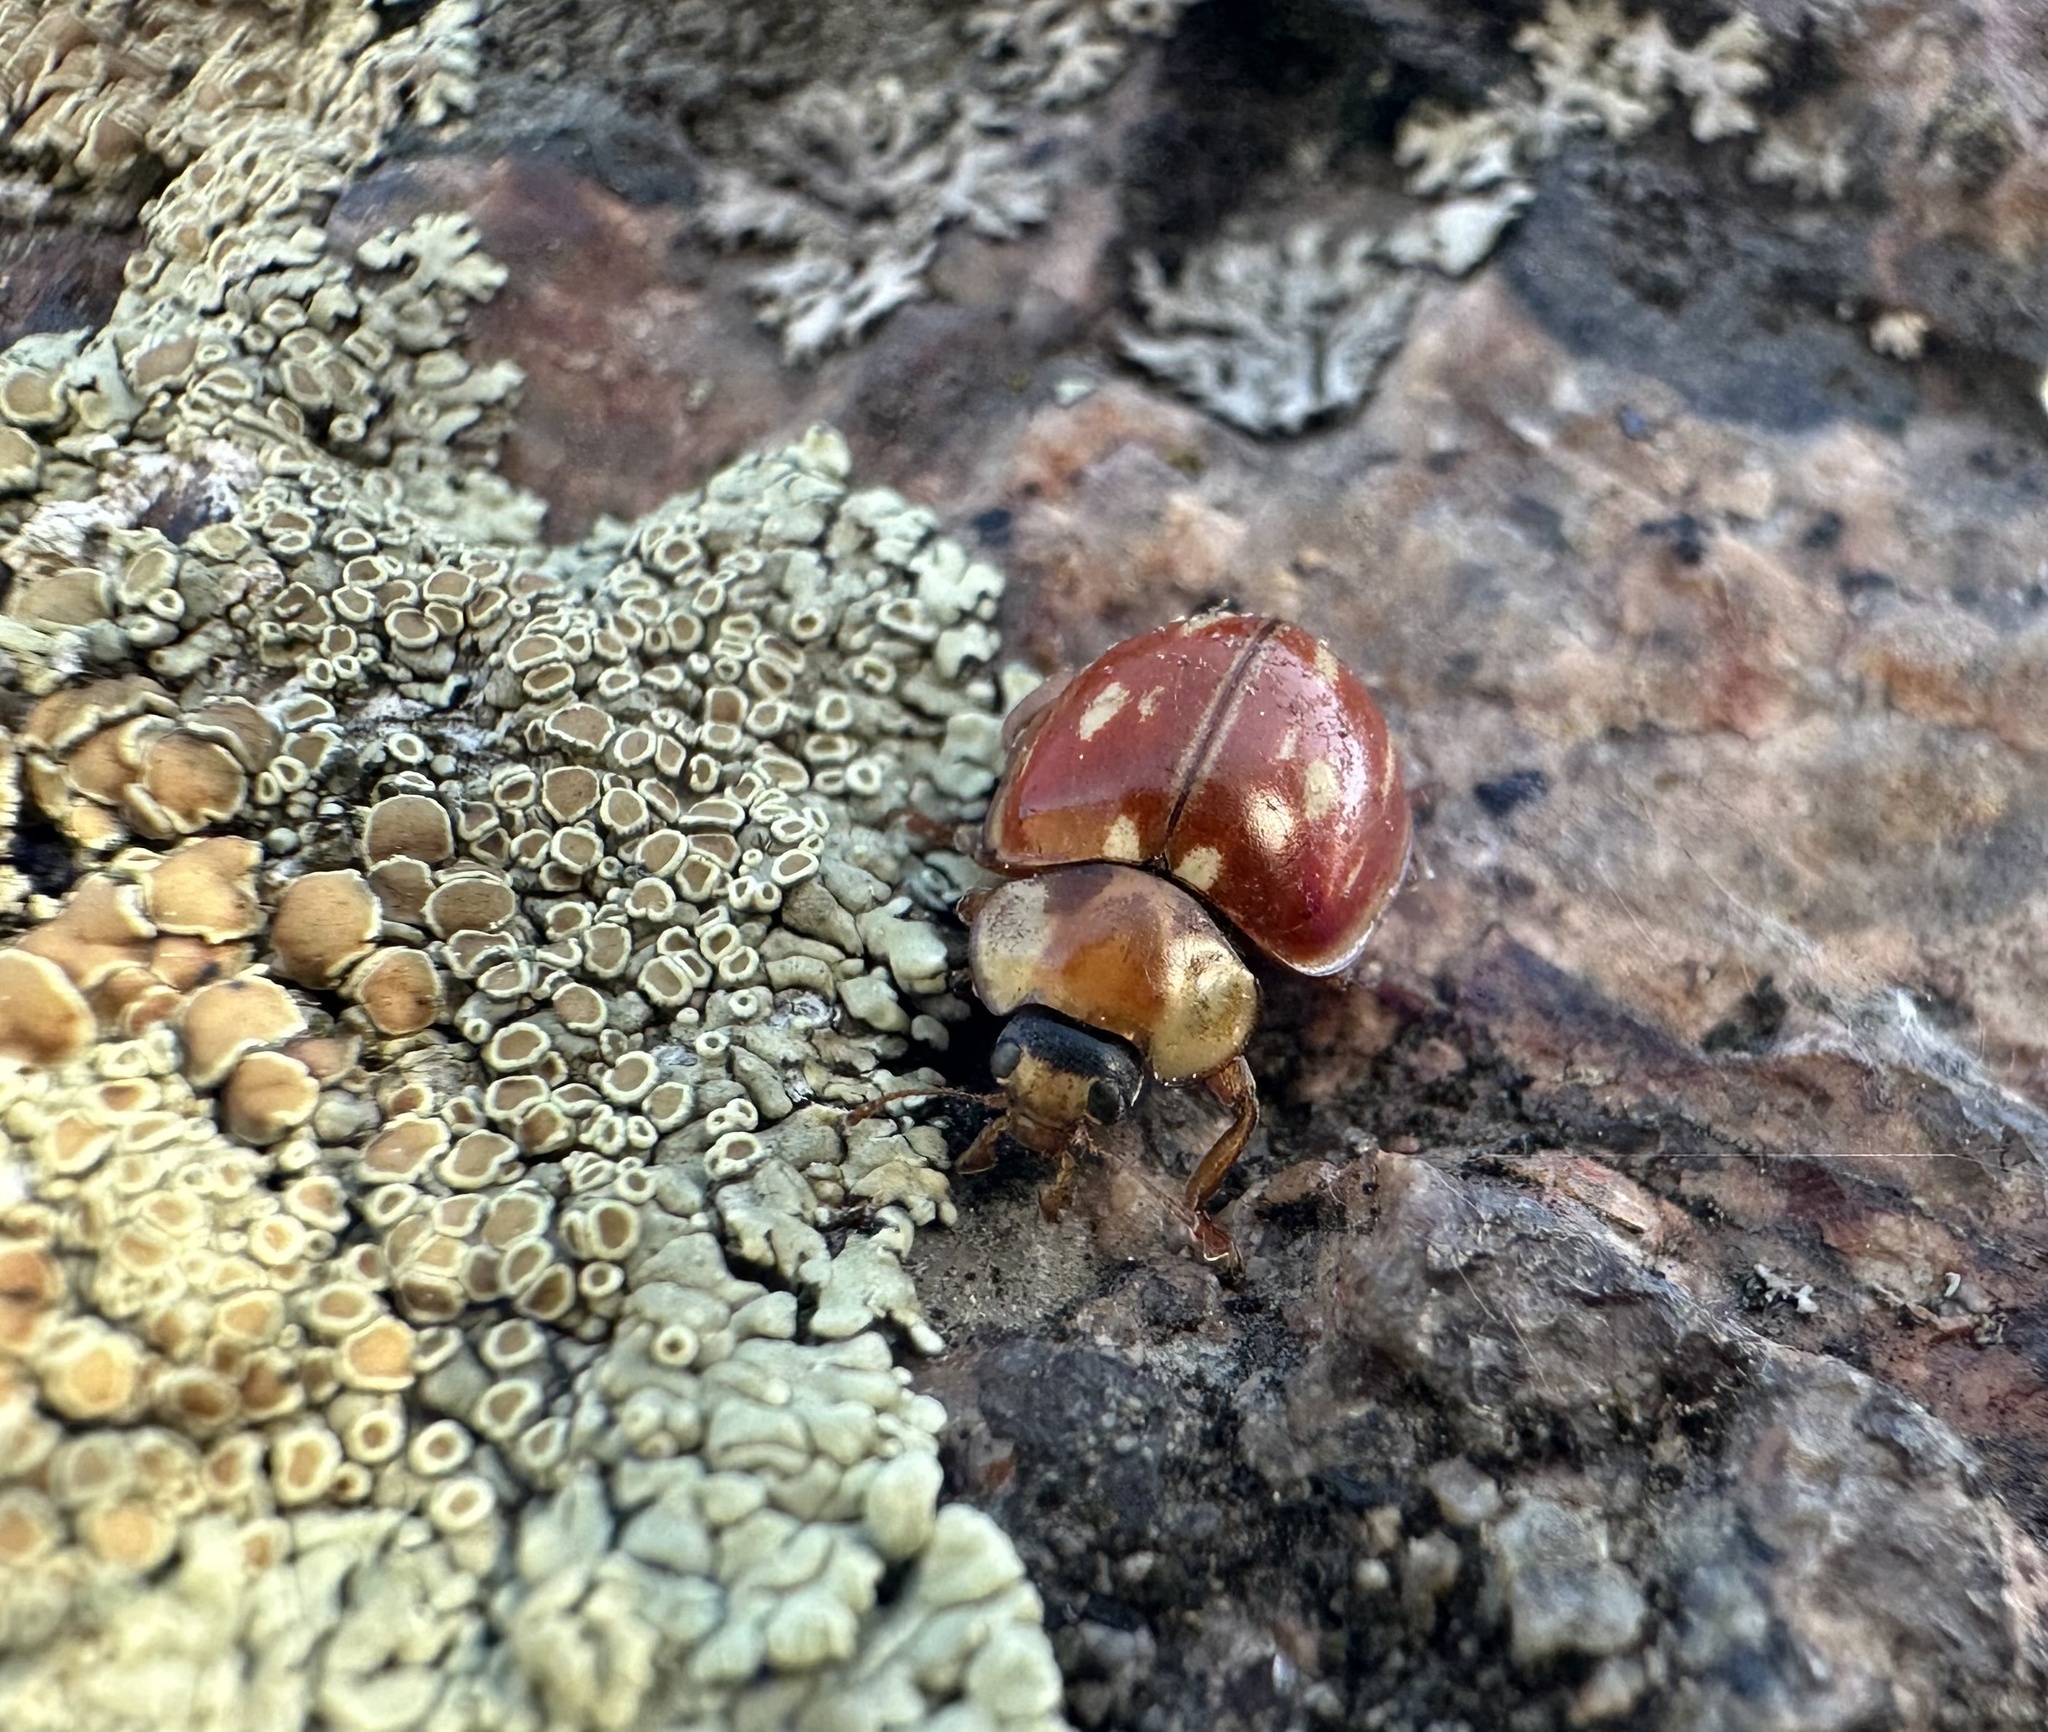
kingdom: Animalia
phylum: Arthropoda
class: Insecta
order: Coleoptera
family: Coccinellidae
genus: Myzia
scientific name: Myzia oblongoguttata
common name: Striped ladybird
